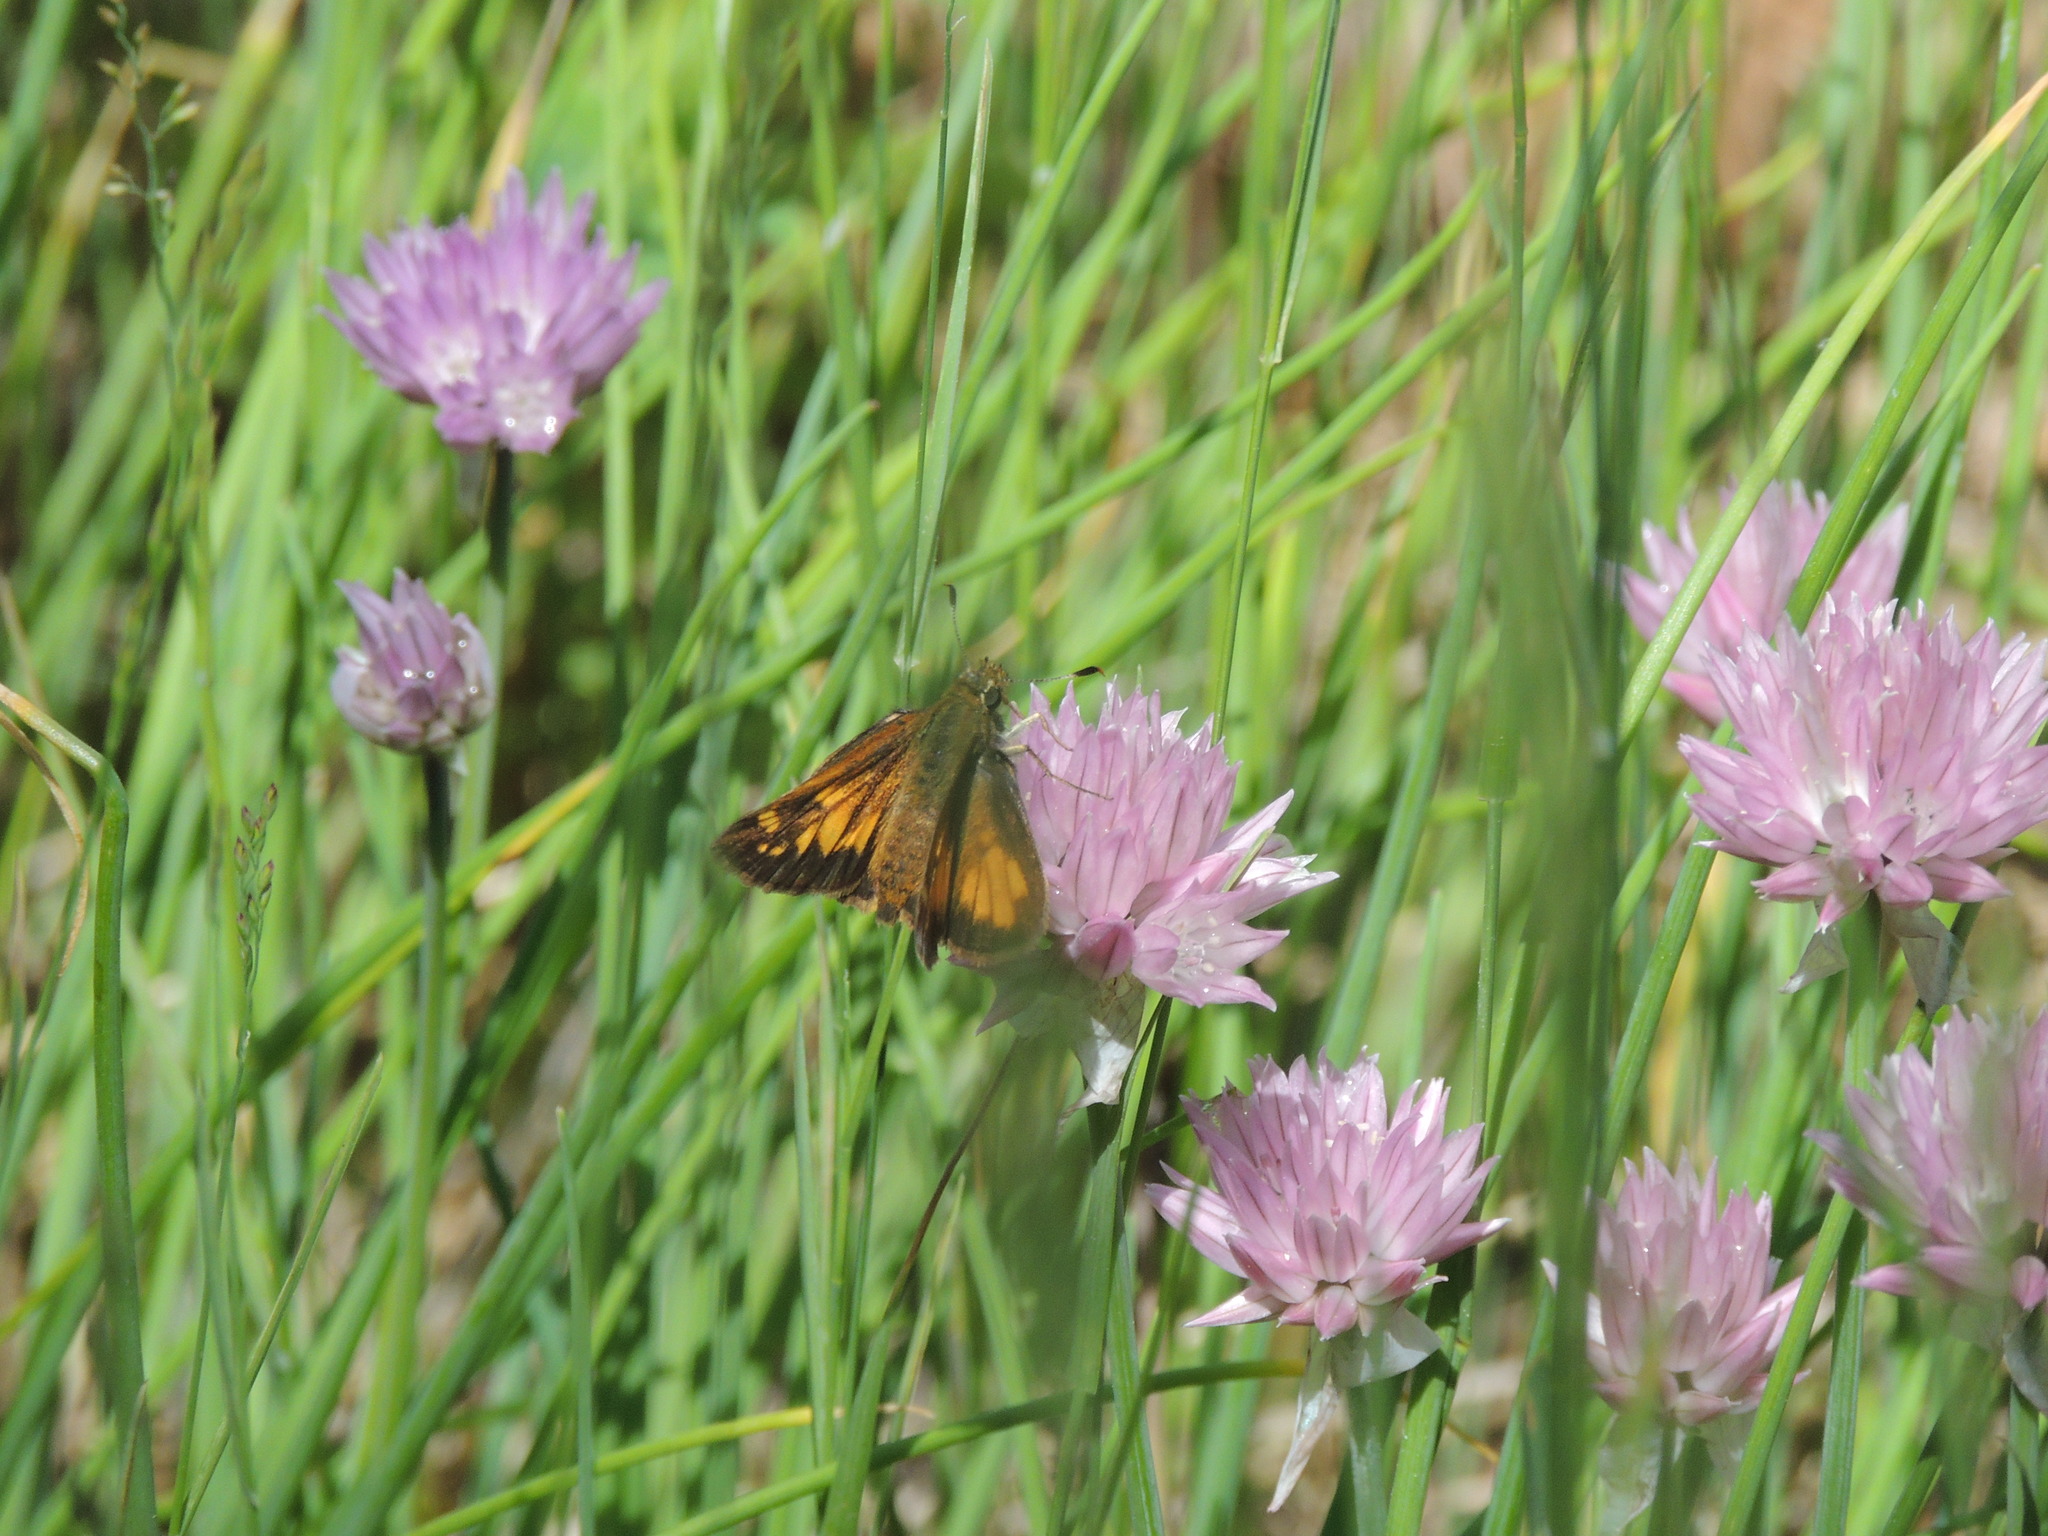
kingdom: Animalia
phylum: Arthropoda
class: Insecta
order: Lepidoptera
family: Hesperiidae
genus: Lon
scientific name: Lon hobomok
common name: Hobomok skipper
